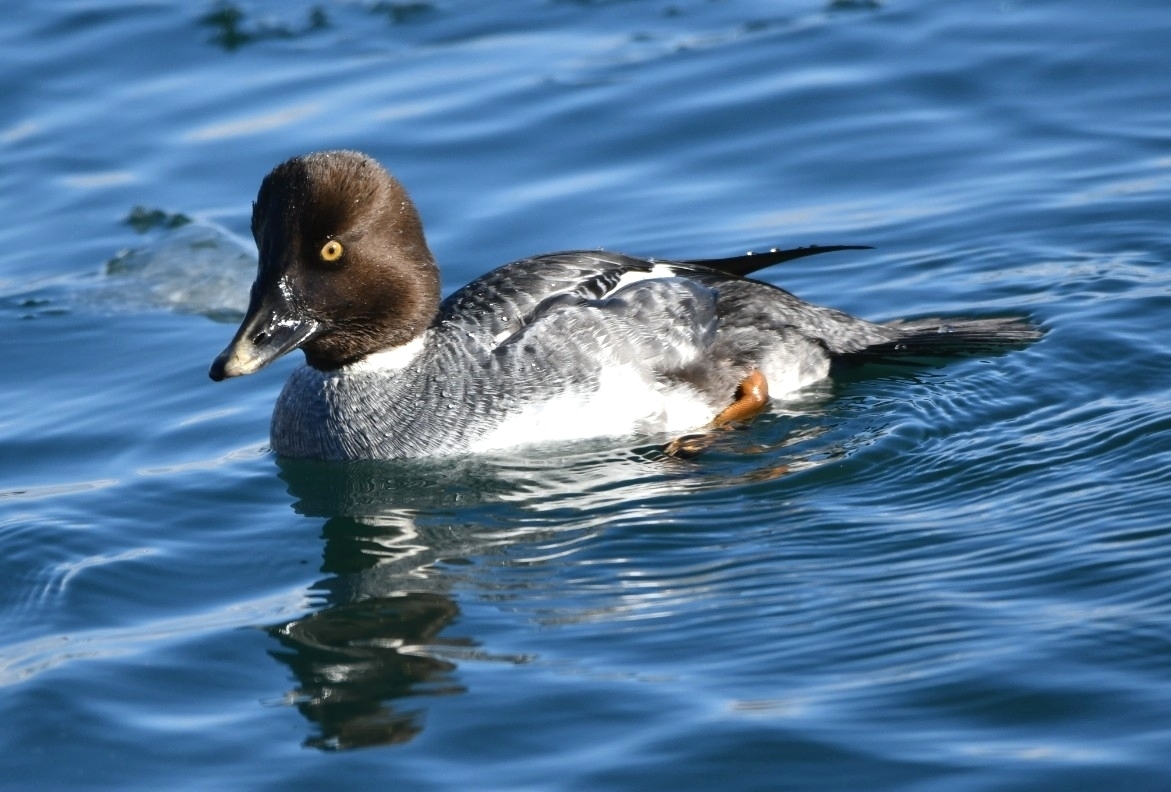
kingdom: Animalia
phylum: Chordata
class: Aves
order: Anseriformes
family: Anatidae
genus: Bucephala
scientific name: Bucephala clangula
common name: Common goldeneye
